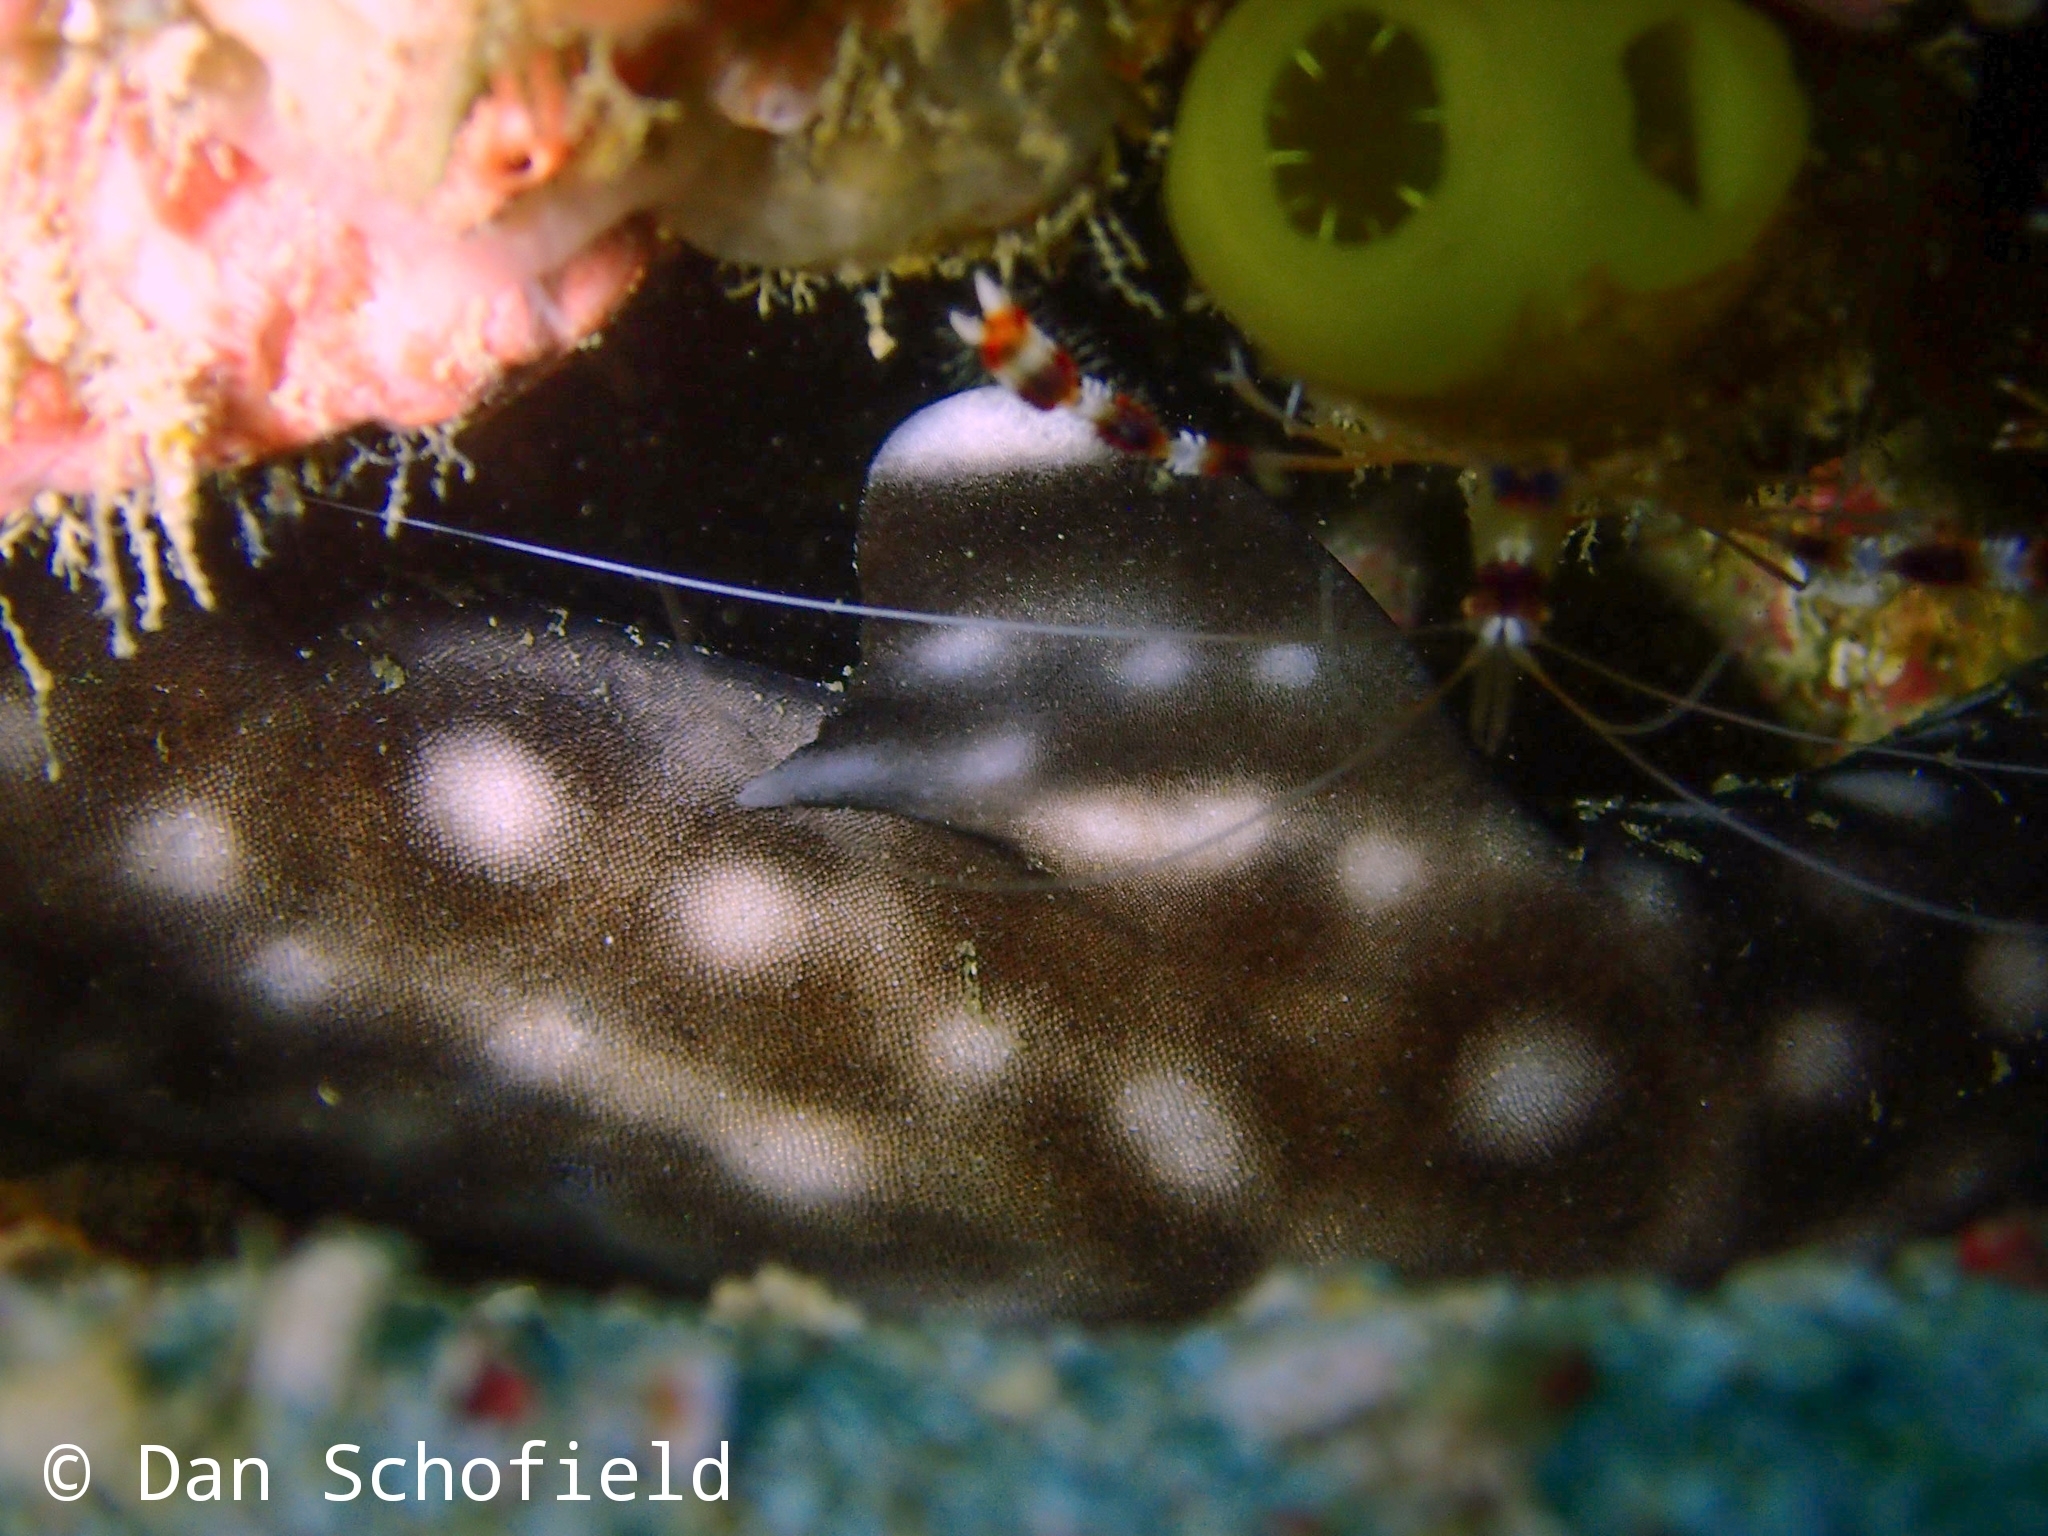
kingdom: Animalia
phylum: Chordata
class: Elasmobranchii
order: Carcharhiniformes
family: Scyliorhinidae
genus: Atelomycterus
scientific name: Atelomycterus marmoratus
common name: Coral catshark
